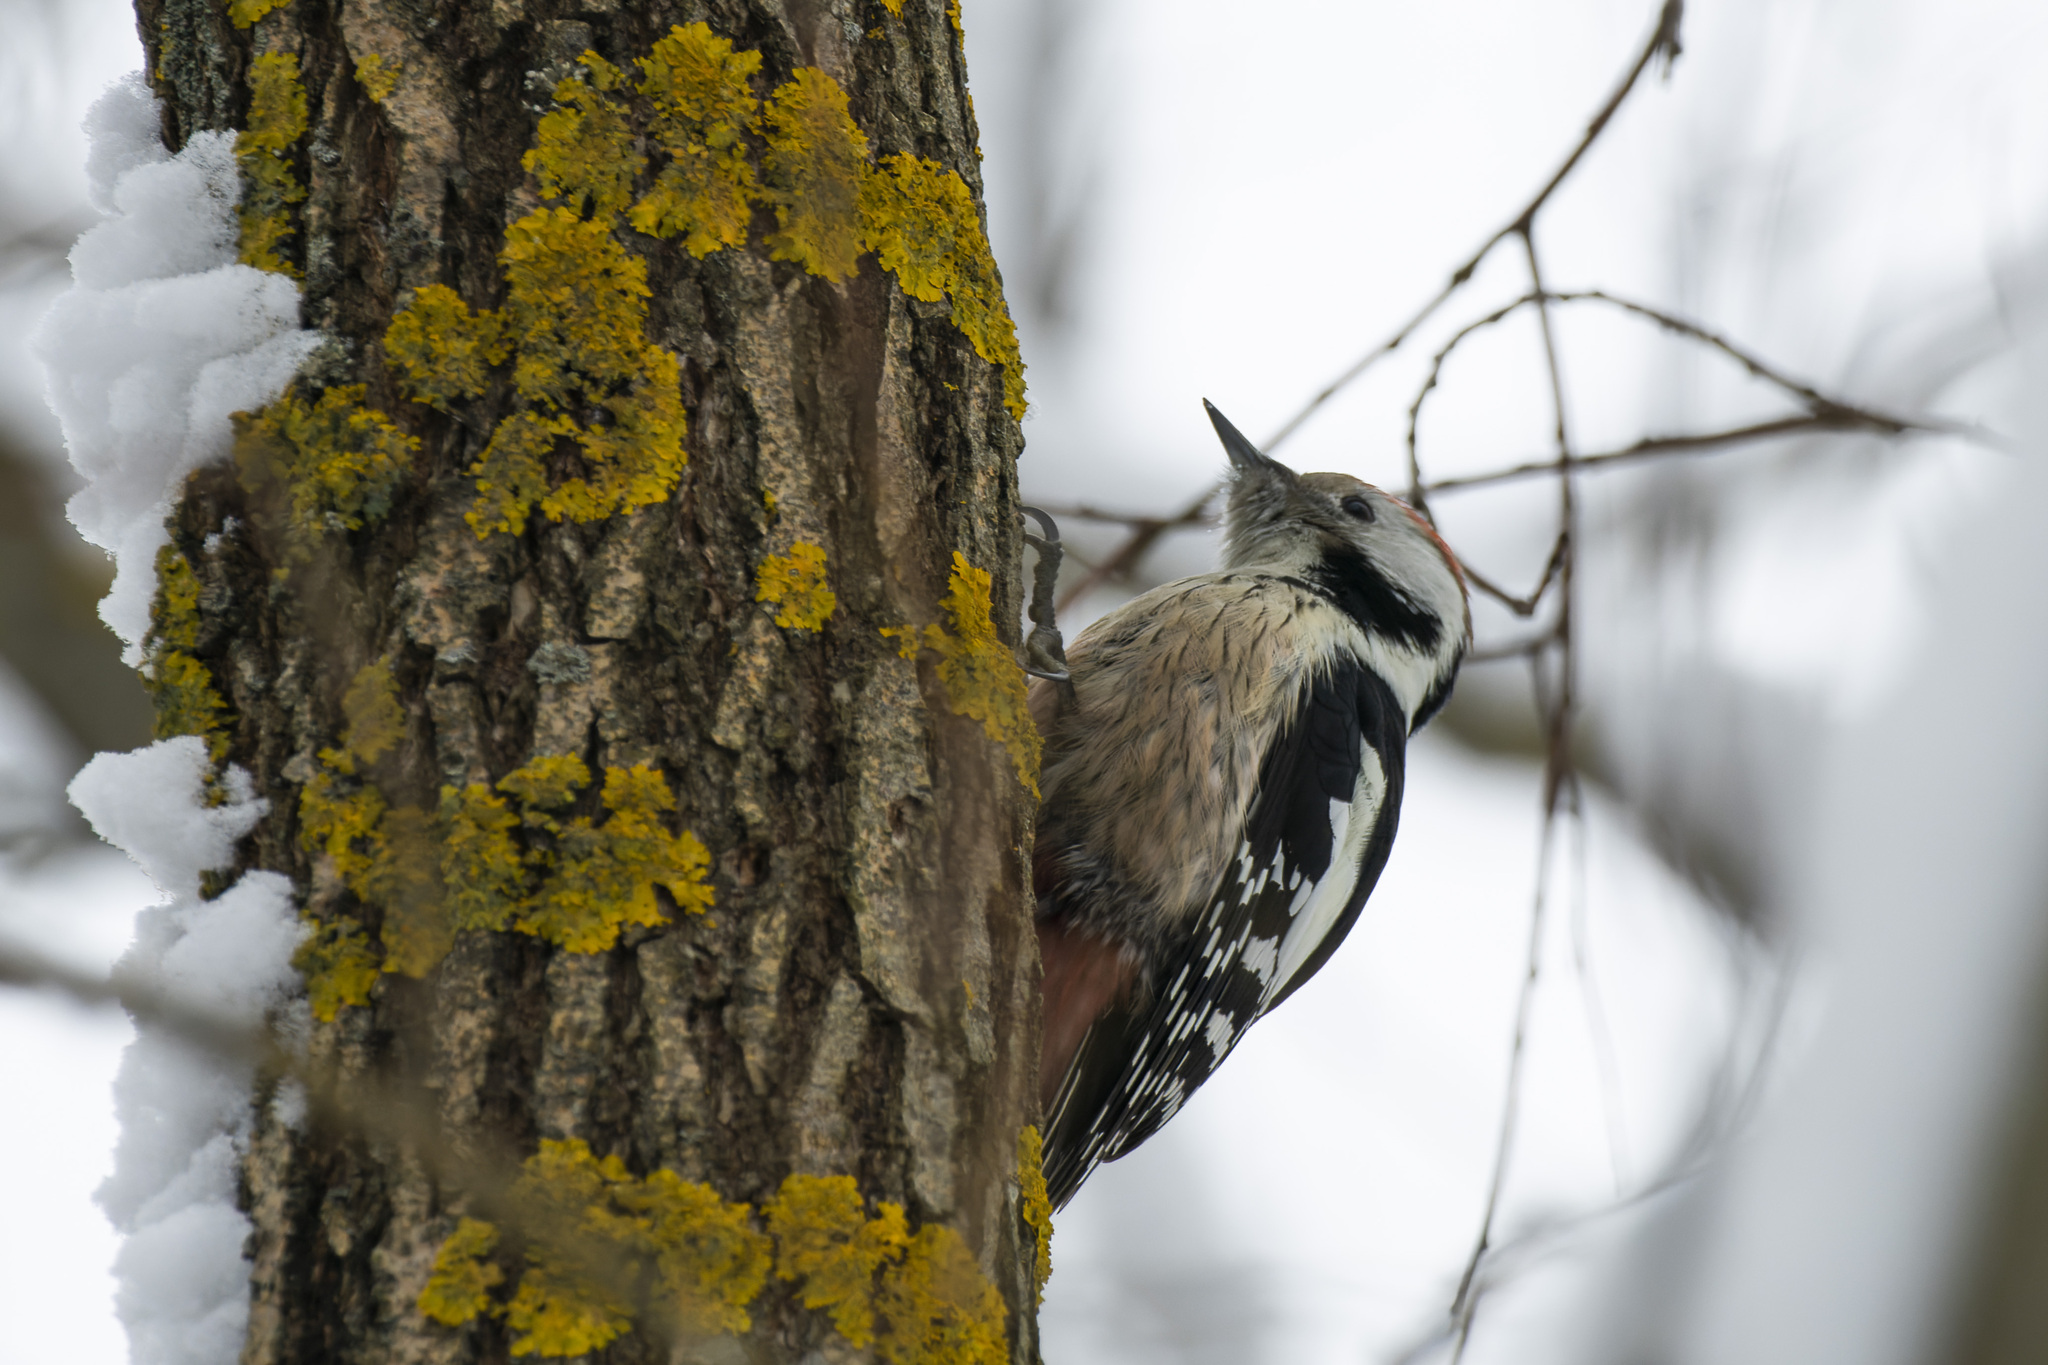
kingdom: Animalia
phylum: Chordata
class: Aves
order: Piciformes
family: Picidae
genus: Dendrocoptes
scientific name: Dendrocoptes medius
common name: Middle spotted woodpecker
